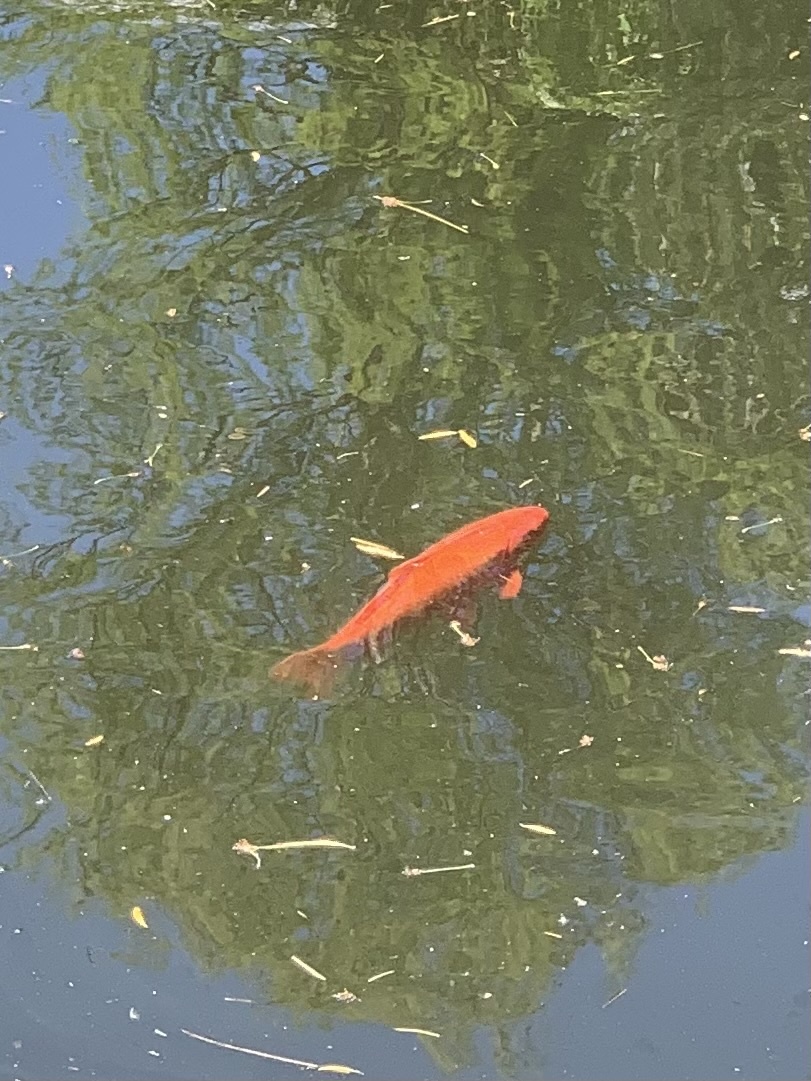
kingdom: Animalia
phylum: Chordata
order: Cypriniformes
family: Cyprinidae
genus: Carassius
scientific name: Carassius auratus
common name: Goldfish
